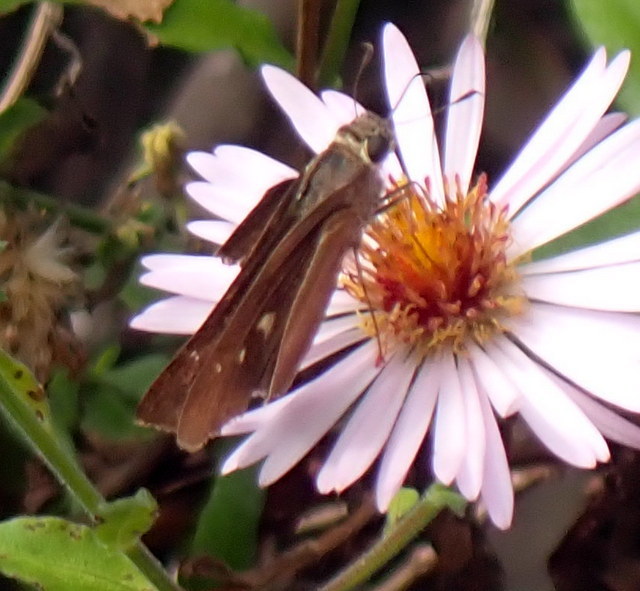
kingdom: Animalia
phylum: Arthropoda
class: Insecta
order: Lepidoptera
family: Hesperiidae
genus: Panoquina
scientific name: Panoquina ocola
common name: Ocola skipper
